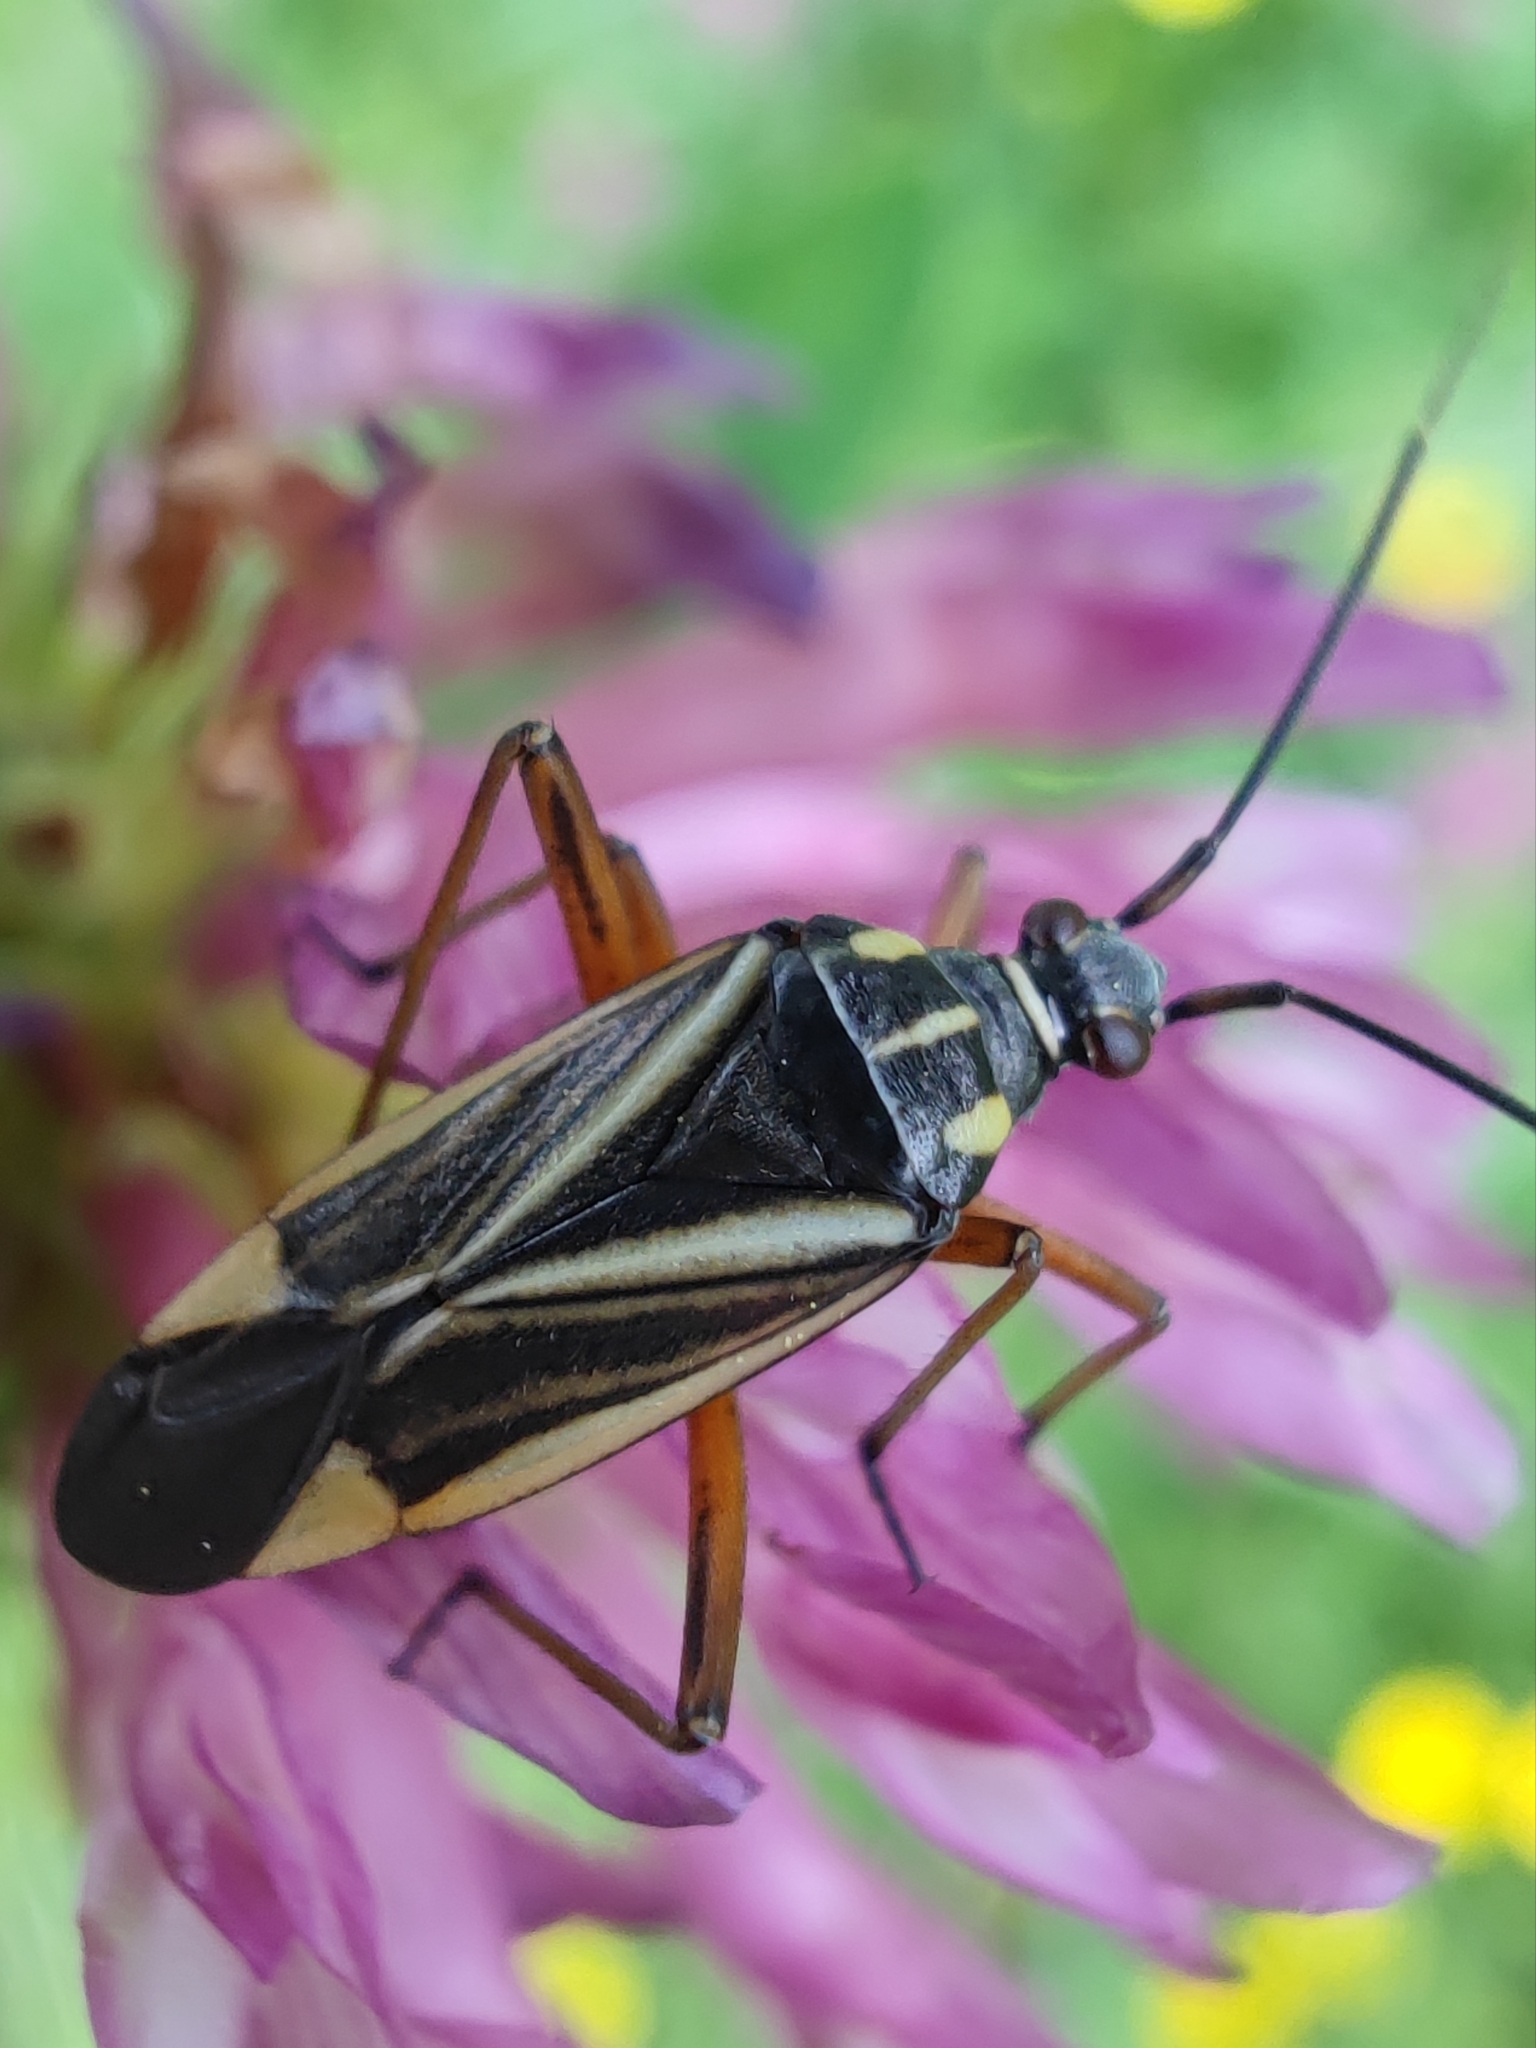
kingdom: Animalia
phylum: Arthropoda
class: Insecta
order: Hemiptera
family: Miridae
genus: Hadrodemus
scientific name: Hadrodemus m-flavum
